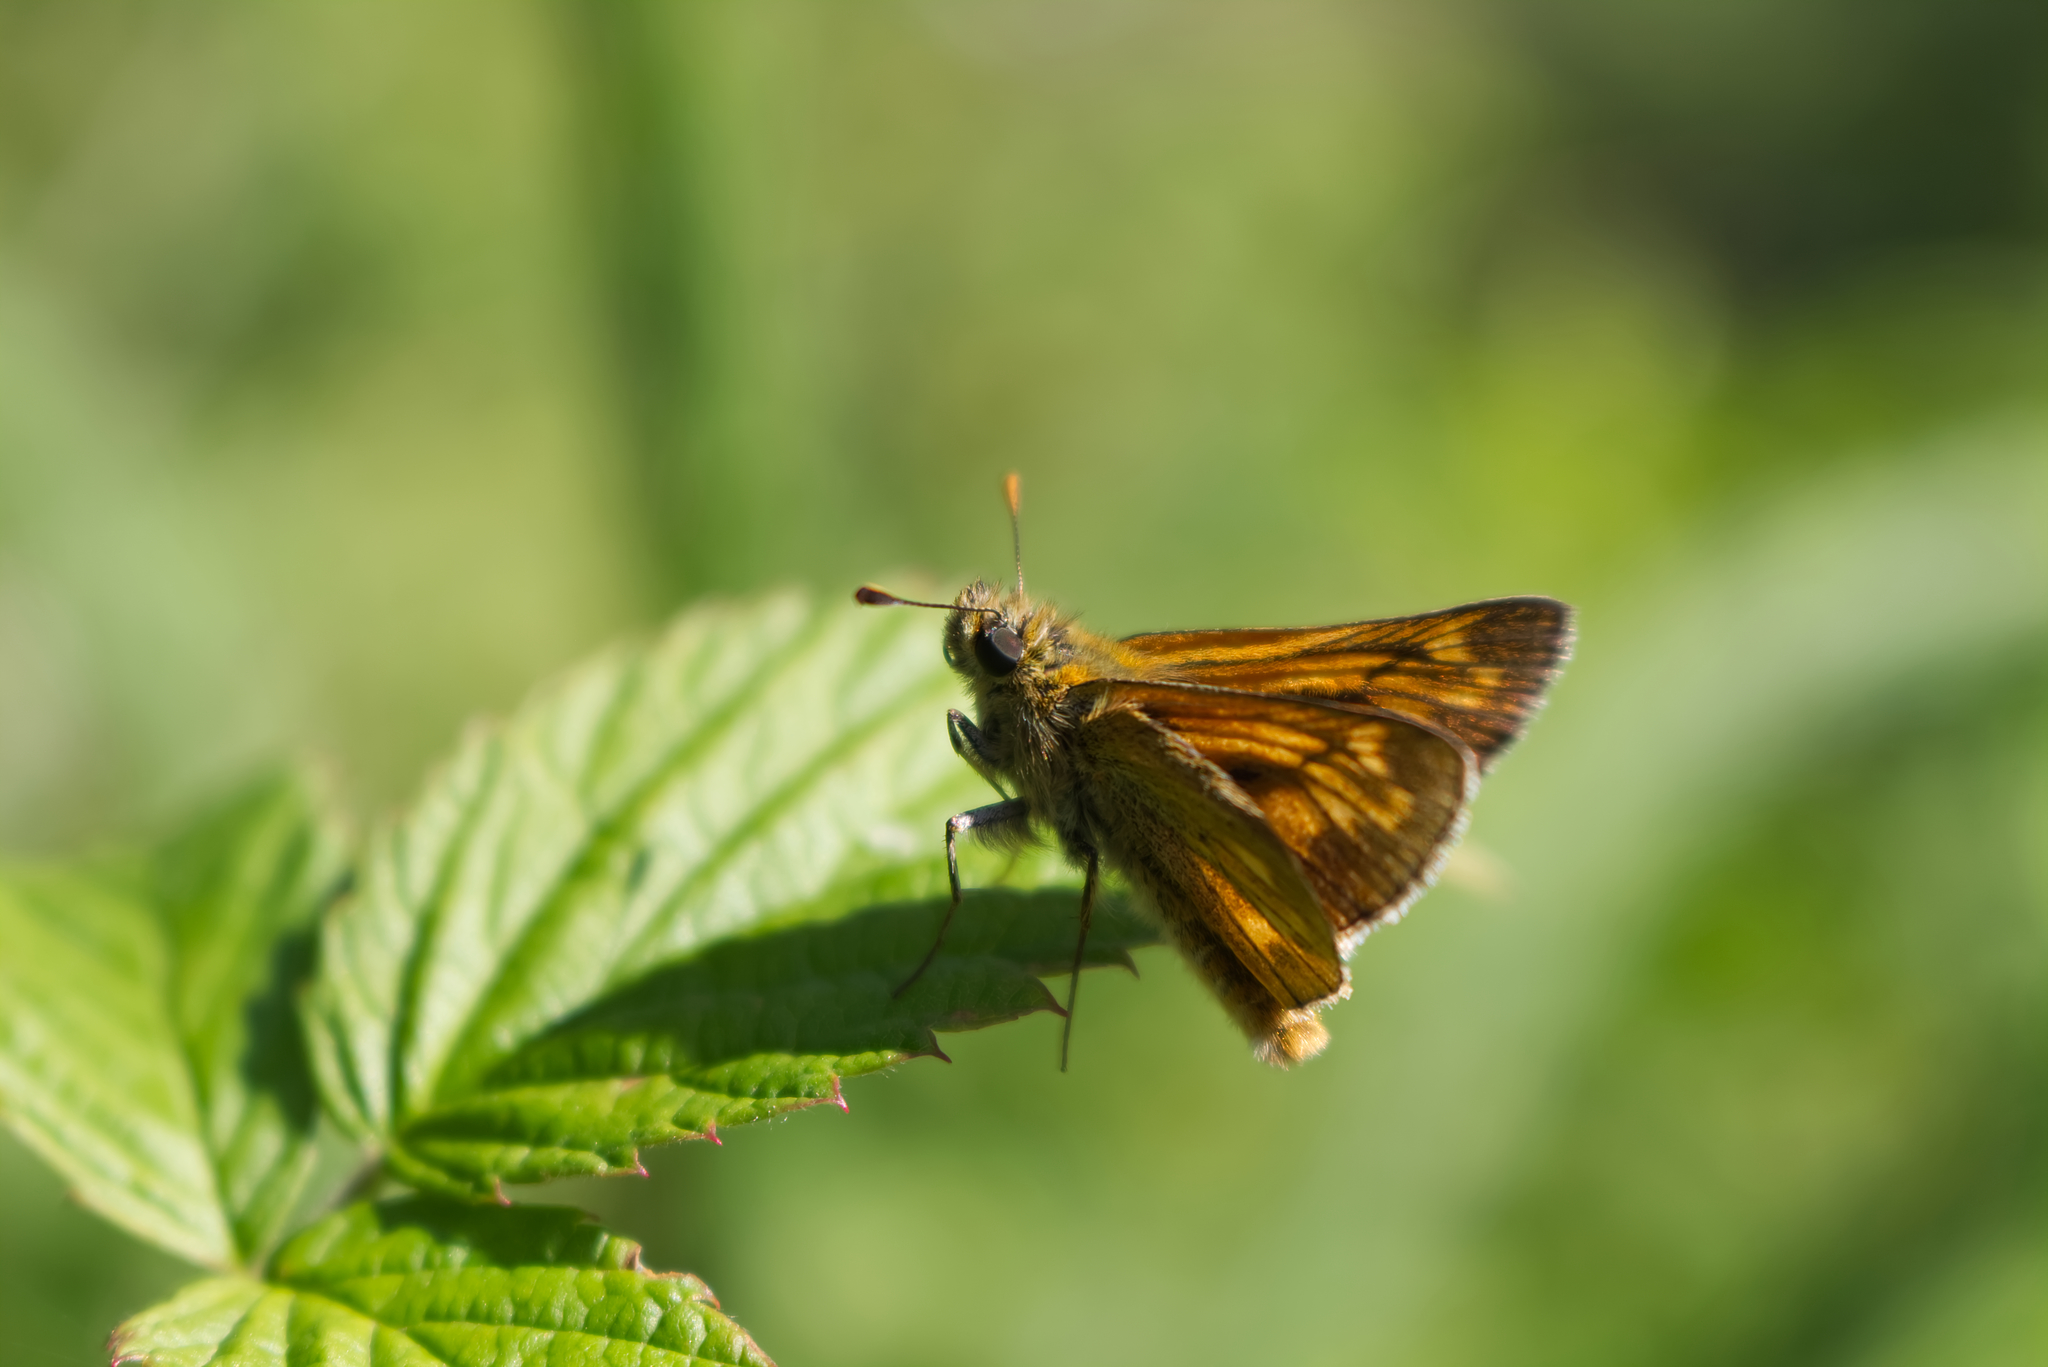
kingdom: Animalia
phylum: Arthropoda
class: Insecta
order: Lepidoptera
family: Hesperiidae
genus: Ochlodes
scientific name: Ochlodes venata
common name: Large skipper
